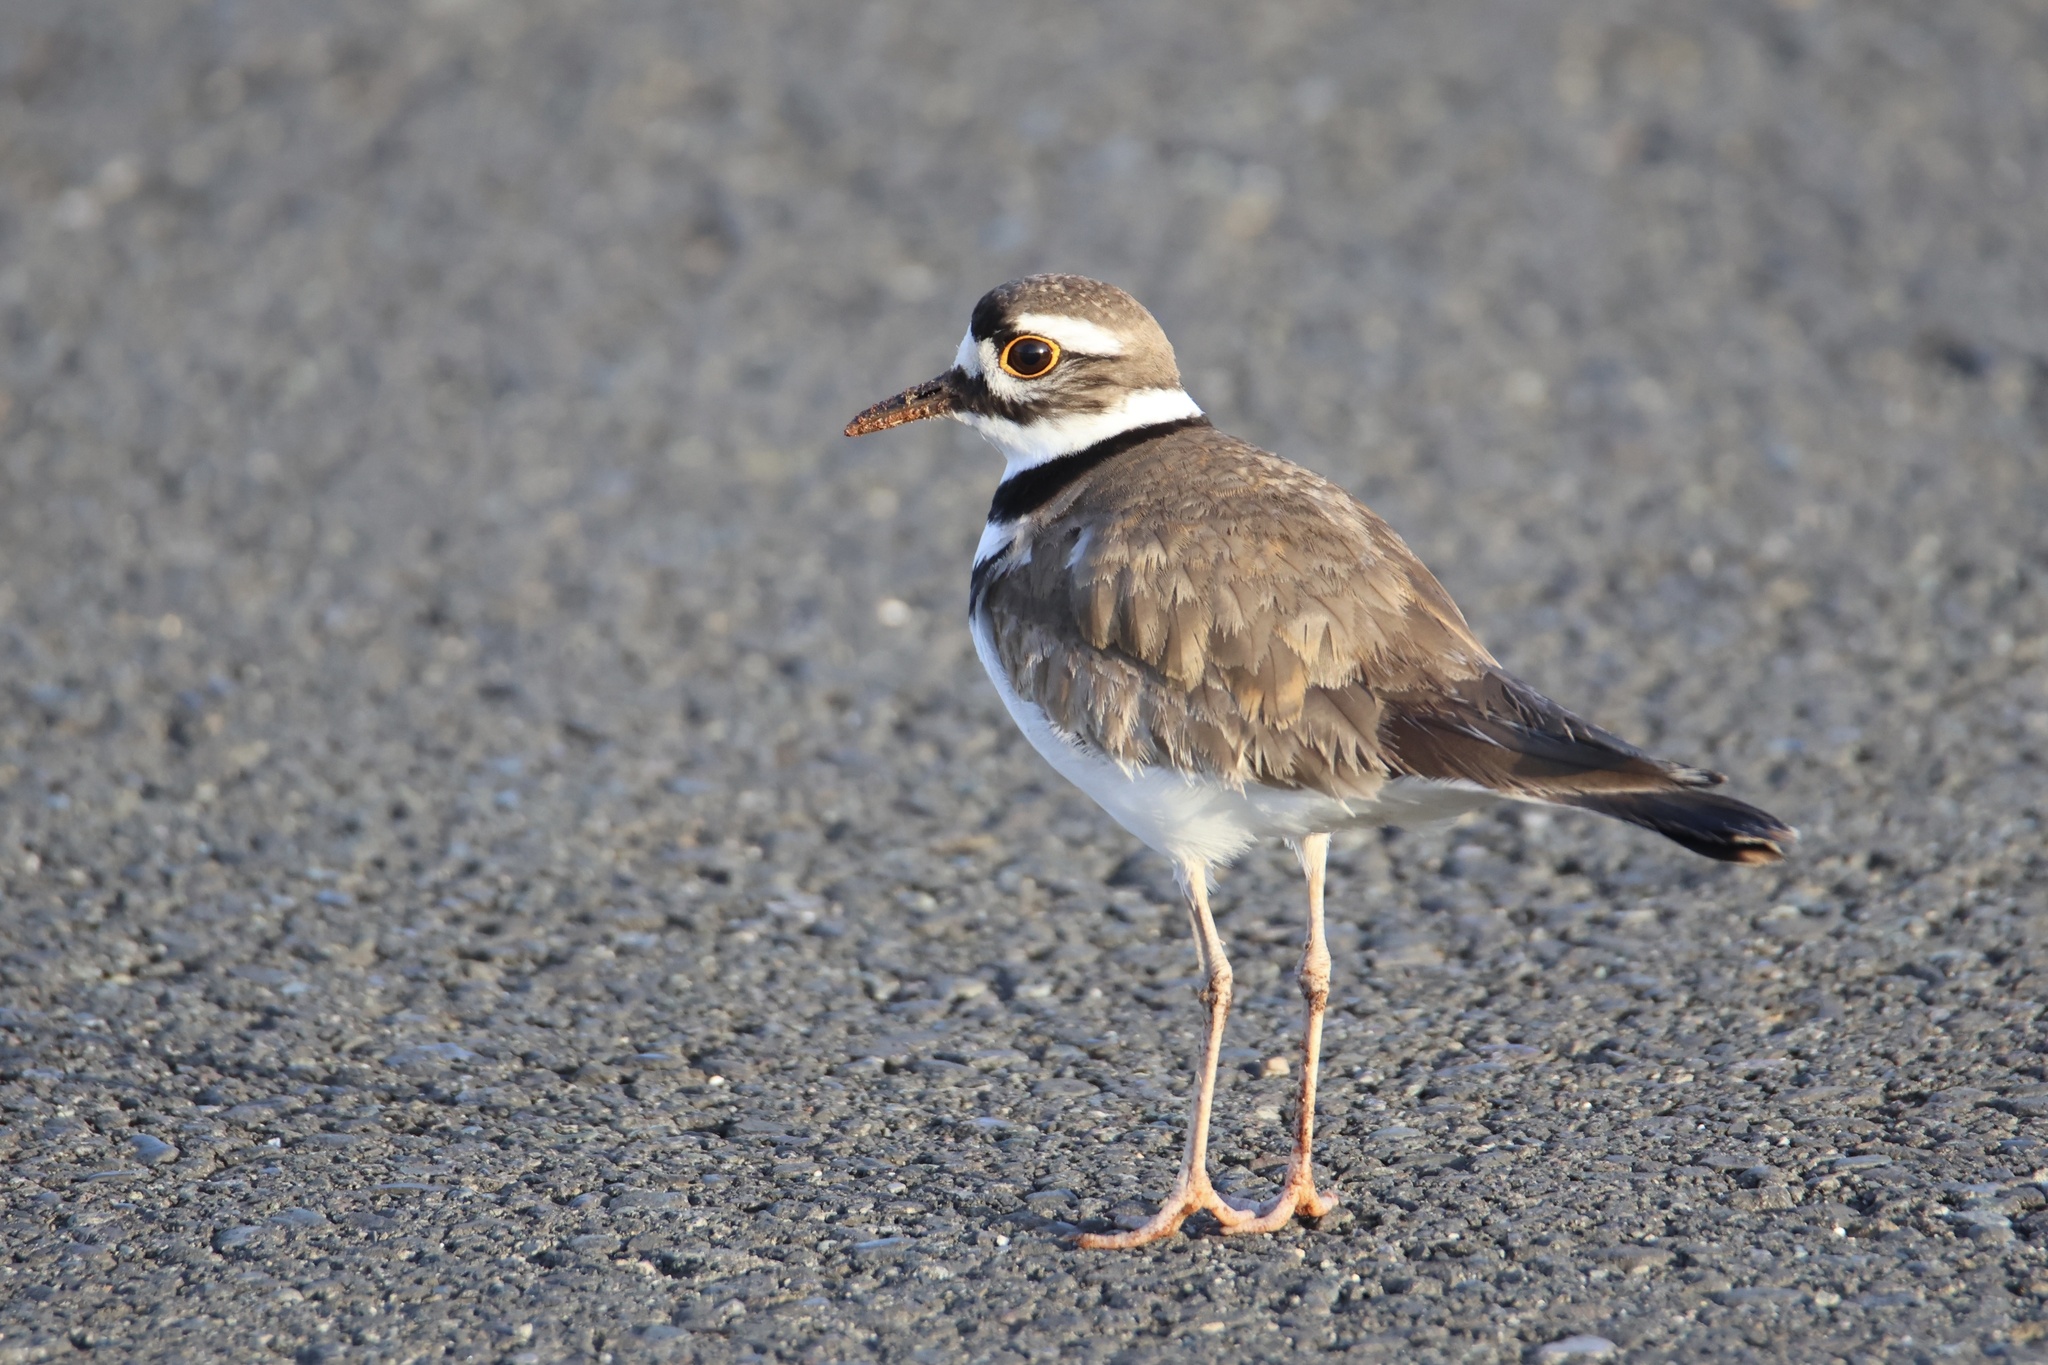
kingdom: Animalia
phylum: Chordata
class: Aves
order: Charadriiformes
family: Charadriidae
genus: Charadrius
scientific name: Charadrius vociferus
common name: Killdeer
